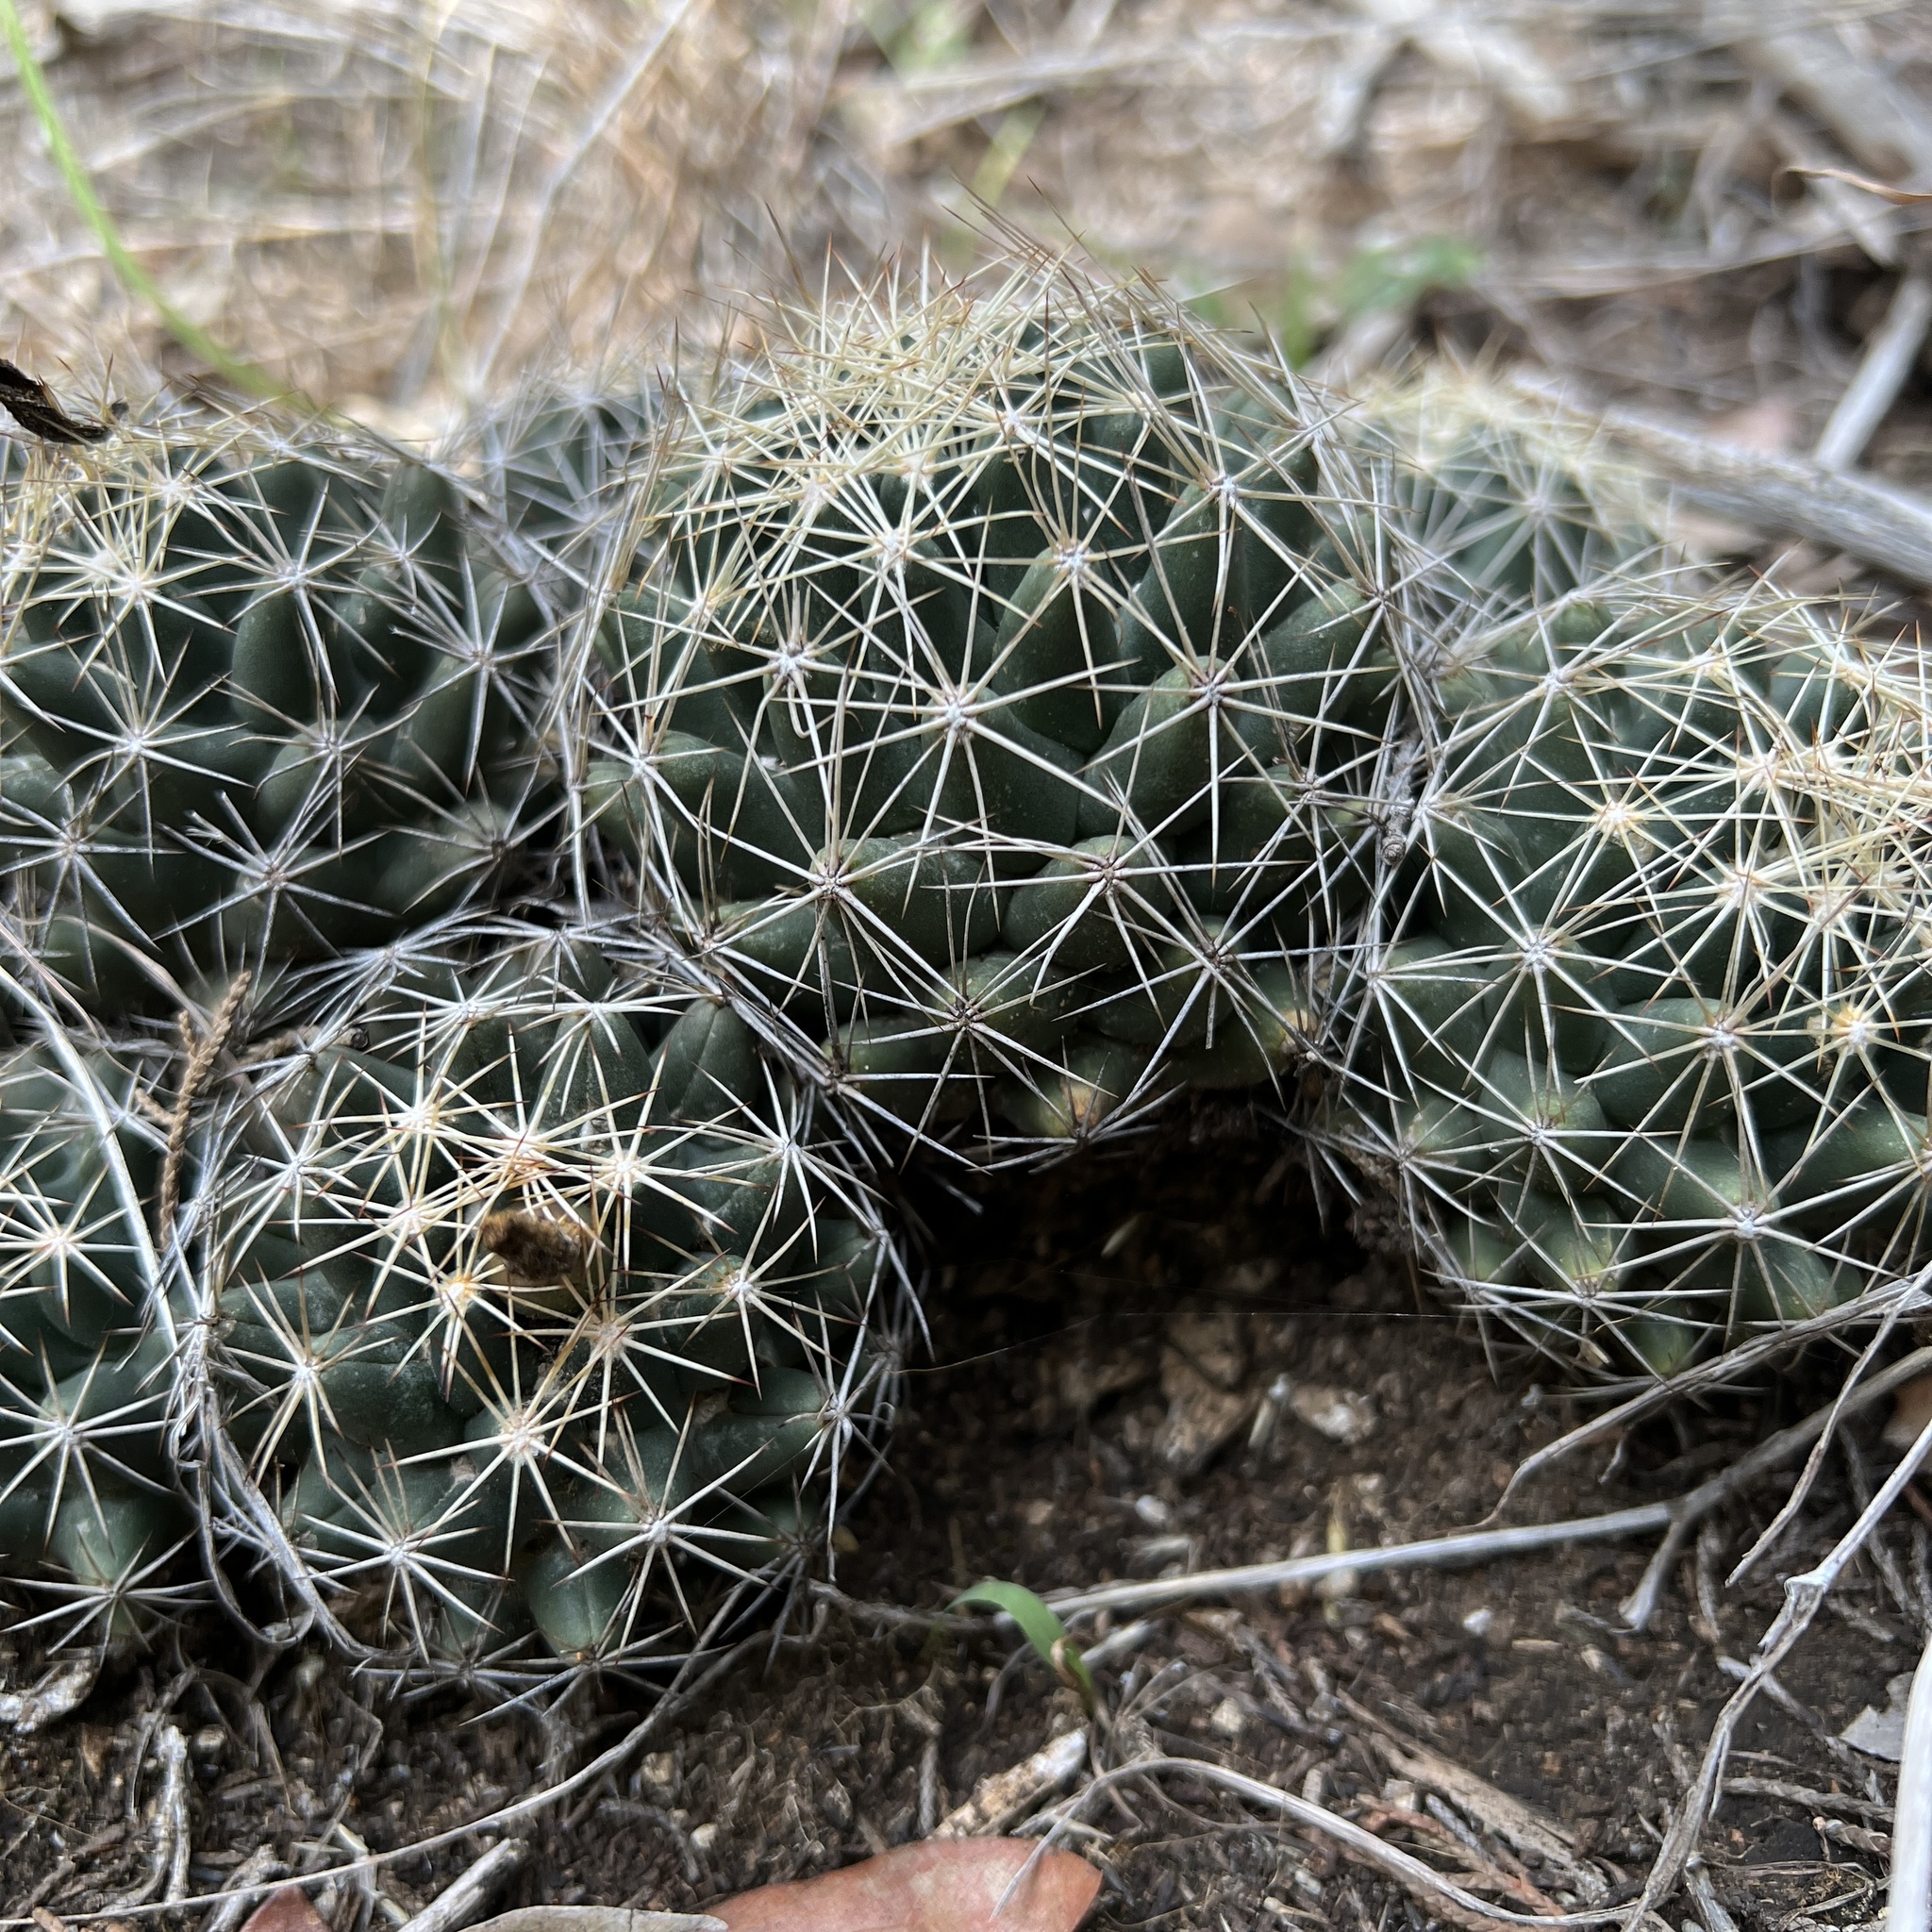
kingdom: Plantae
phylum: Tracheophyta
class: Magnoliopsida
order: Caryophyllales
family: Cactaceae
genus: Coryphantha
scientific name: Coryphantha sulcata
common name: Finger cactus
